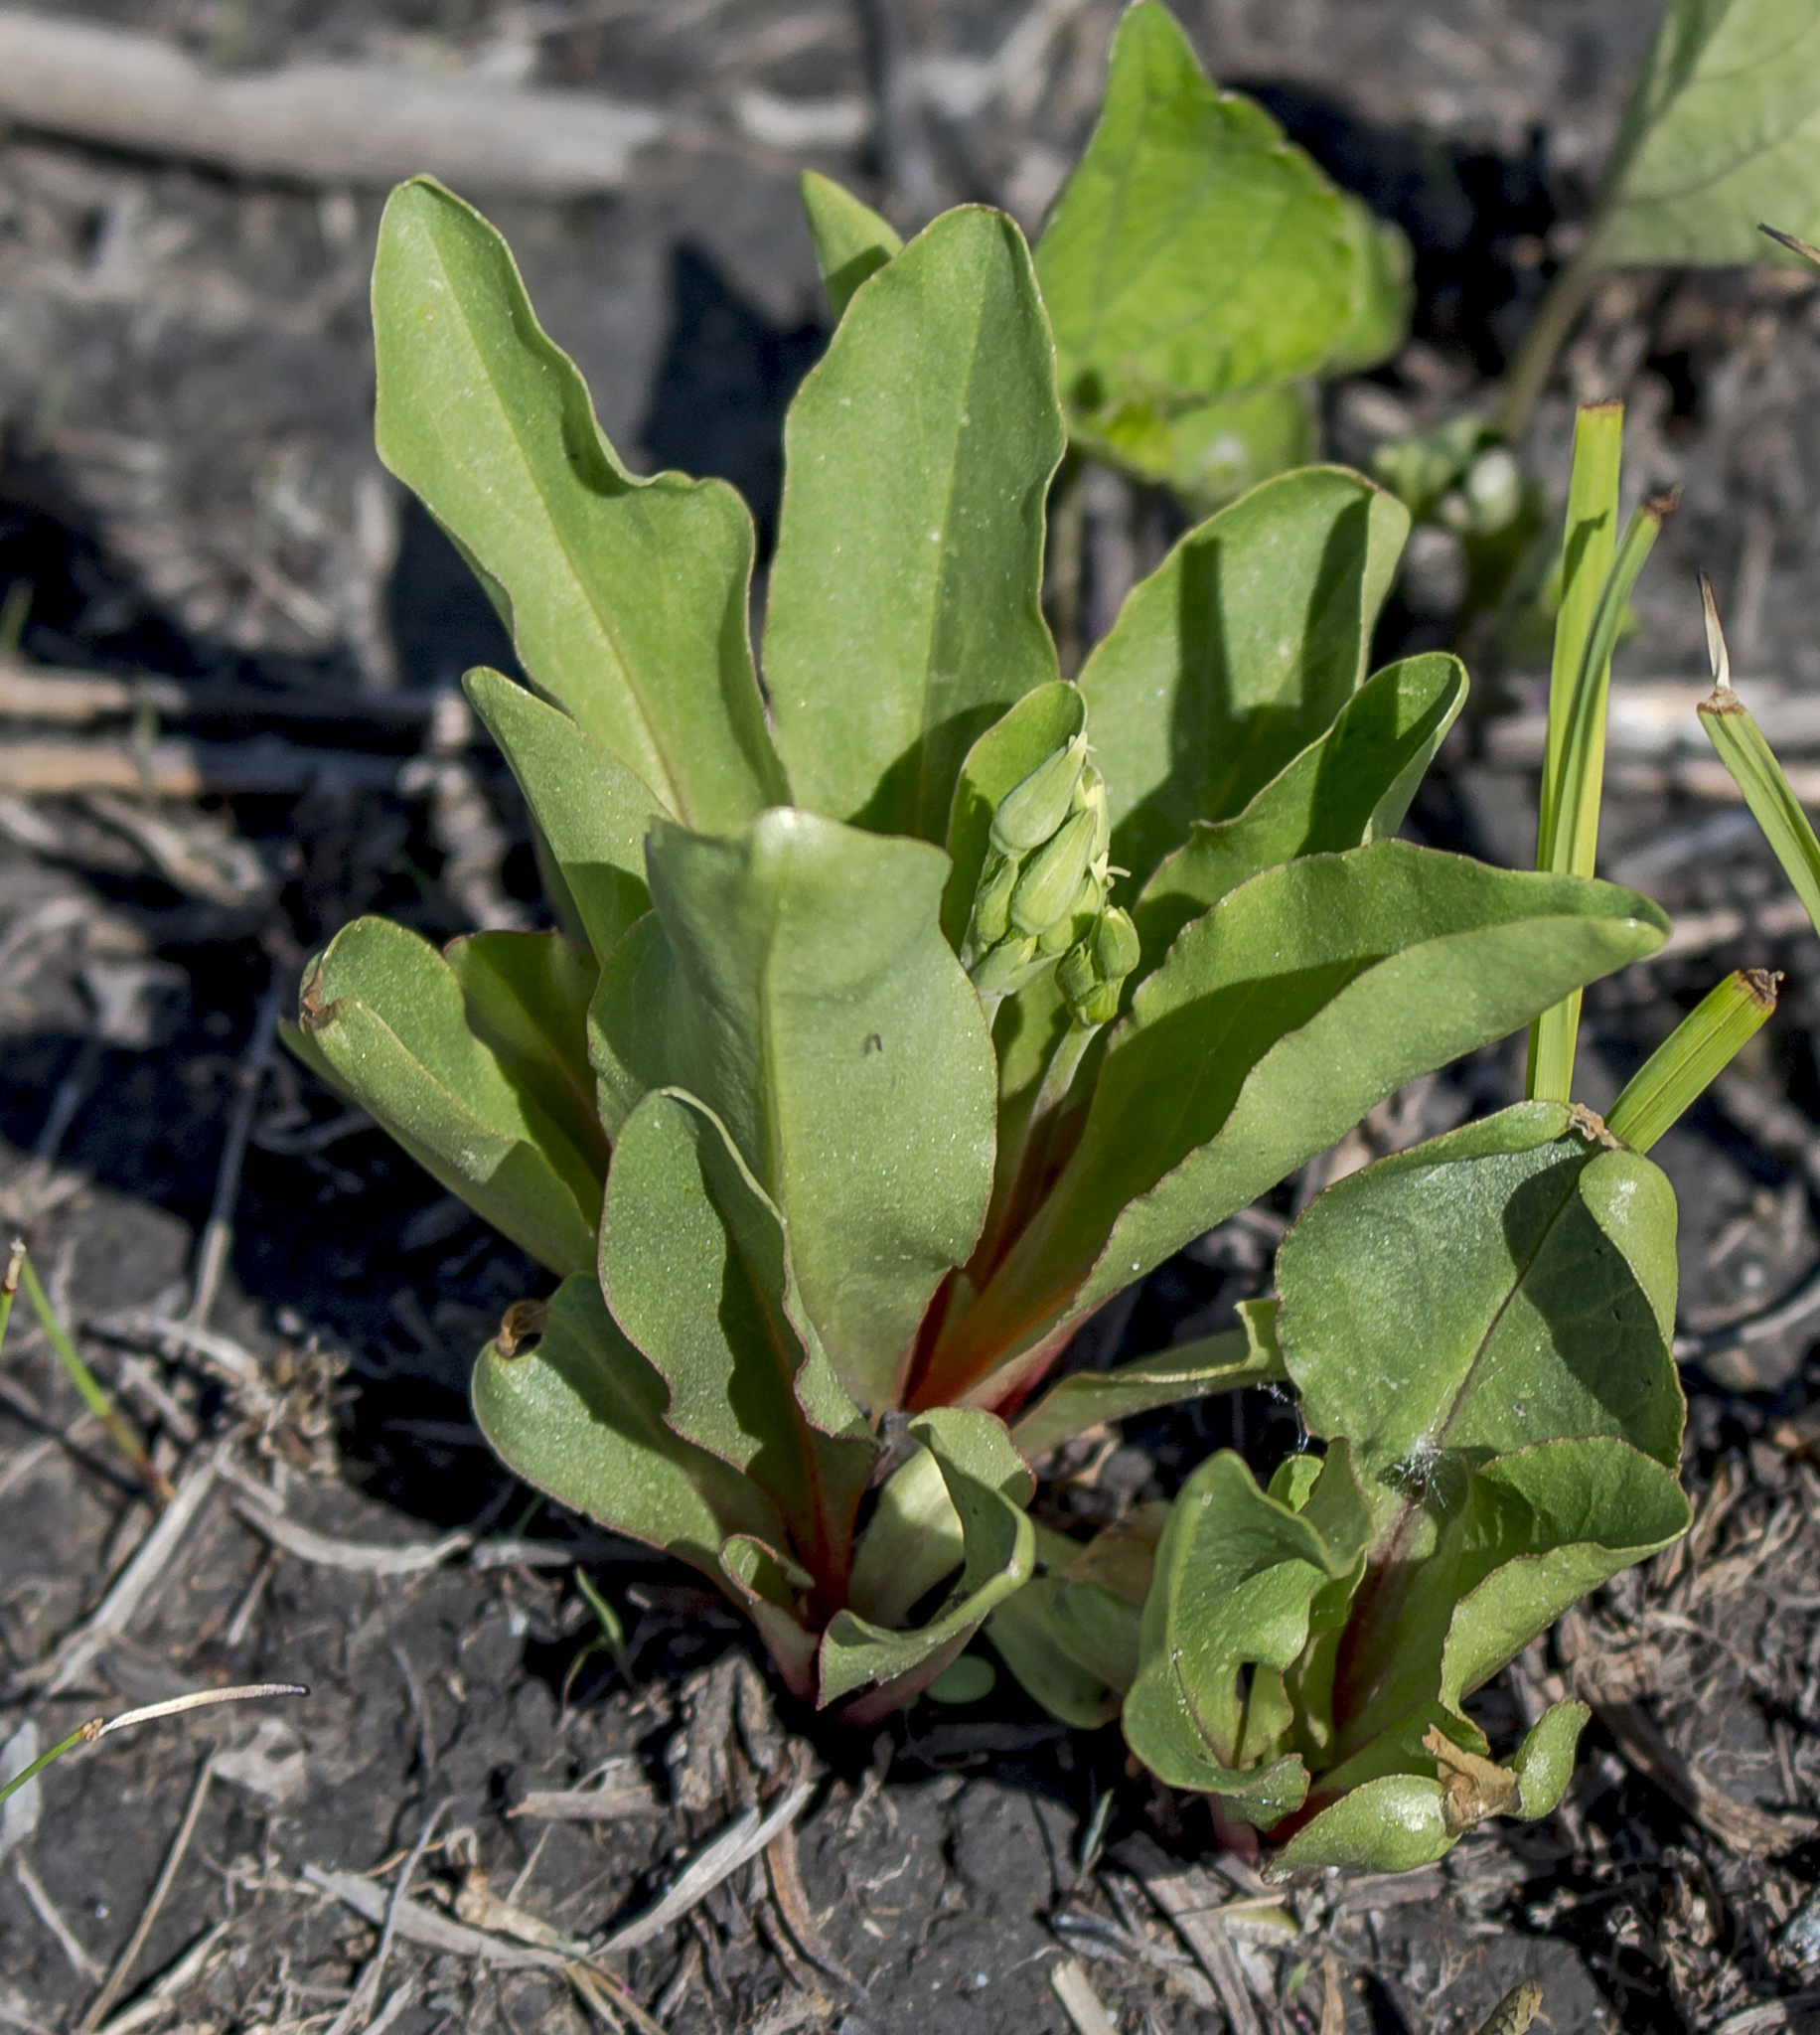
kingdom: Plantae
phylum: Tracheophyta
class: Magnoliopsida
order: Ericales
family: Primulaceae
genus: Dodecatheon
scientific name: Dodecatheon meadia
